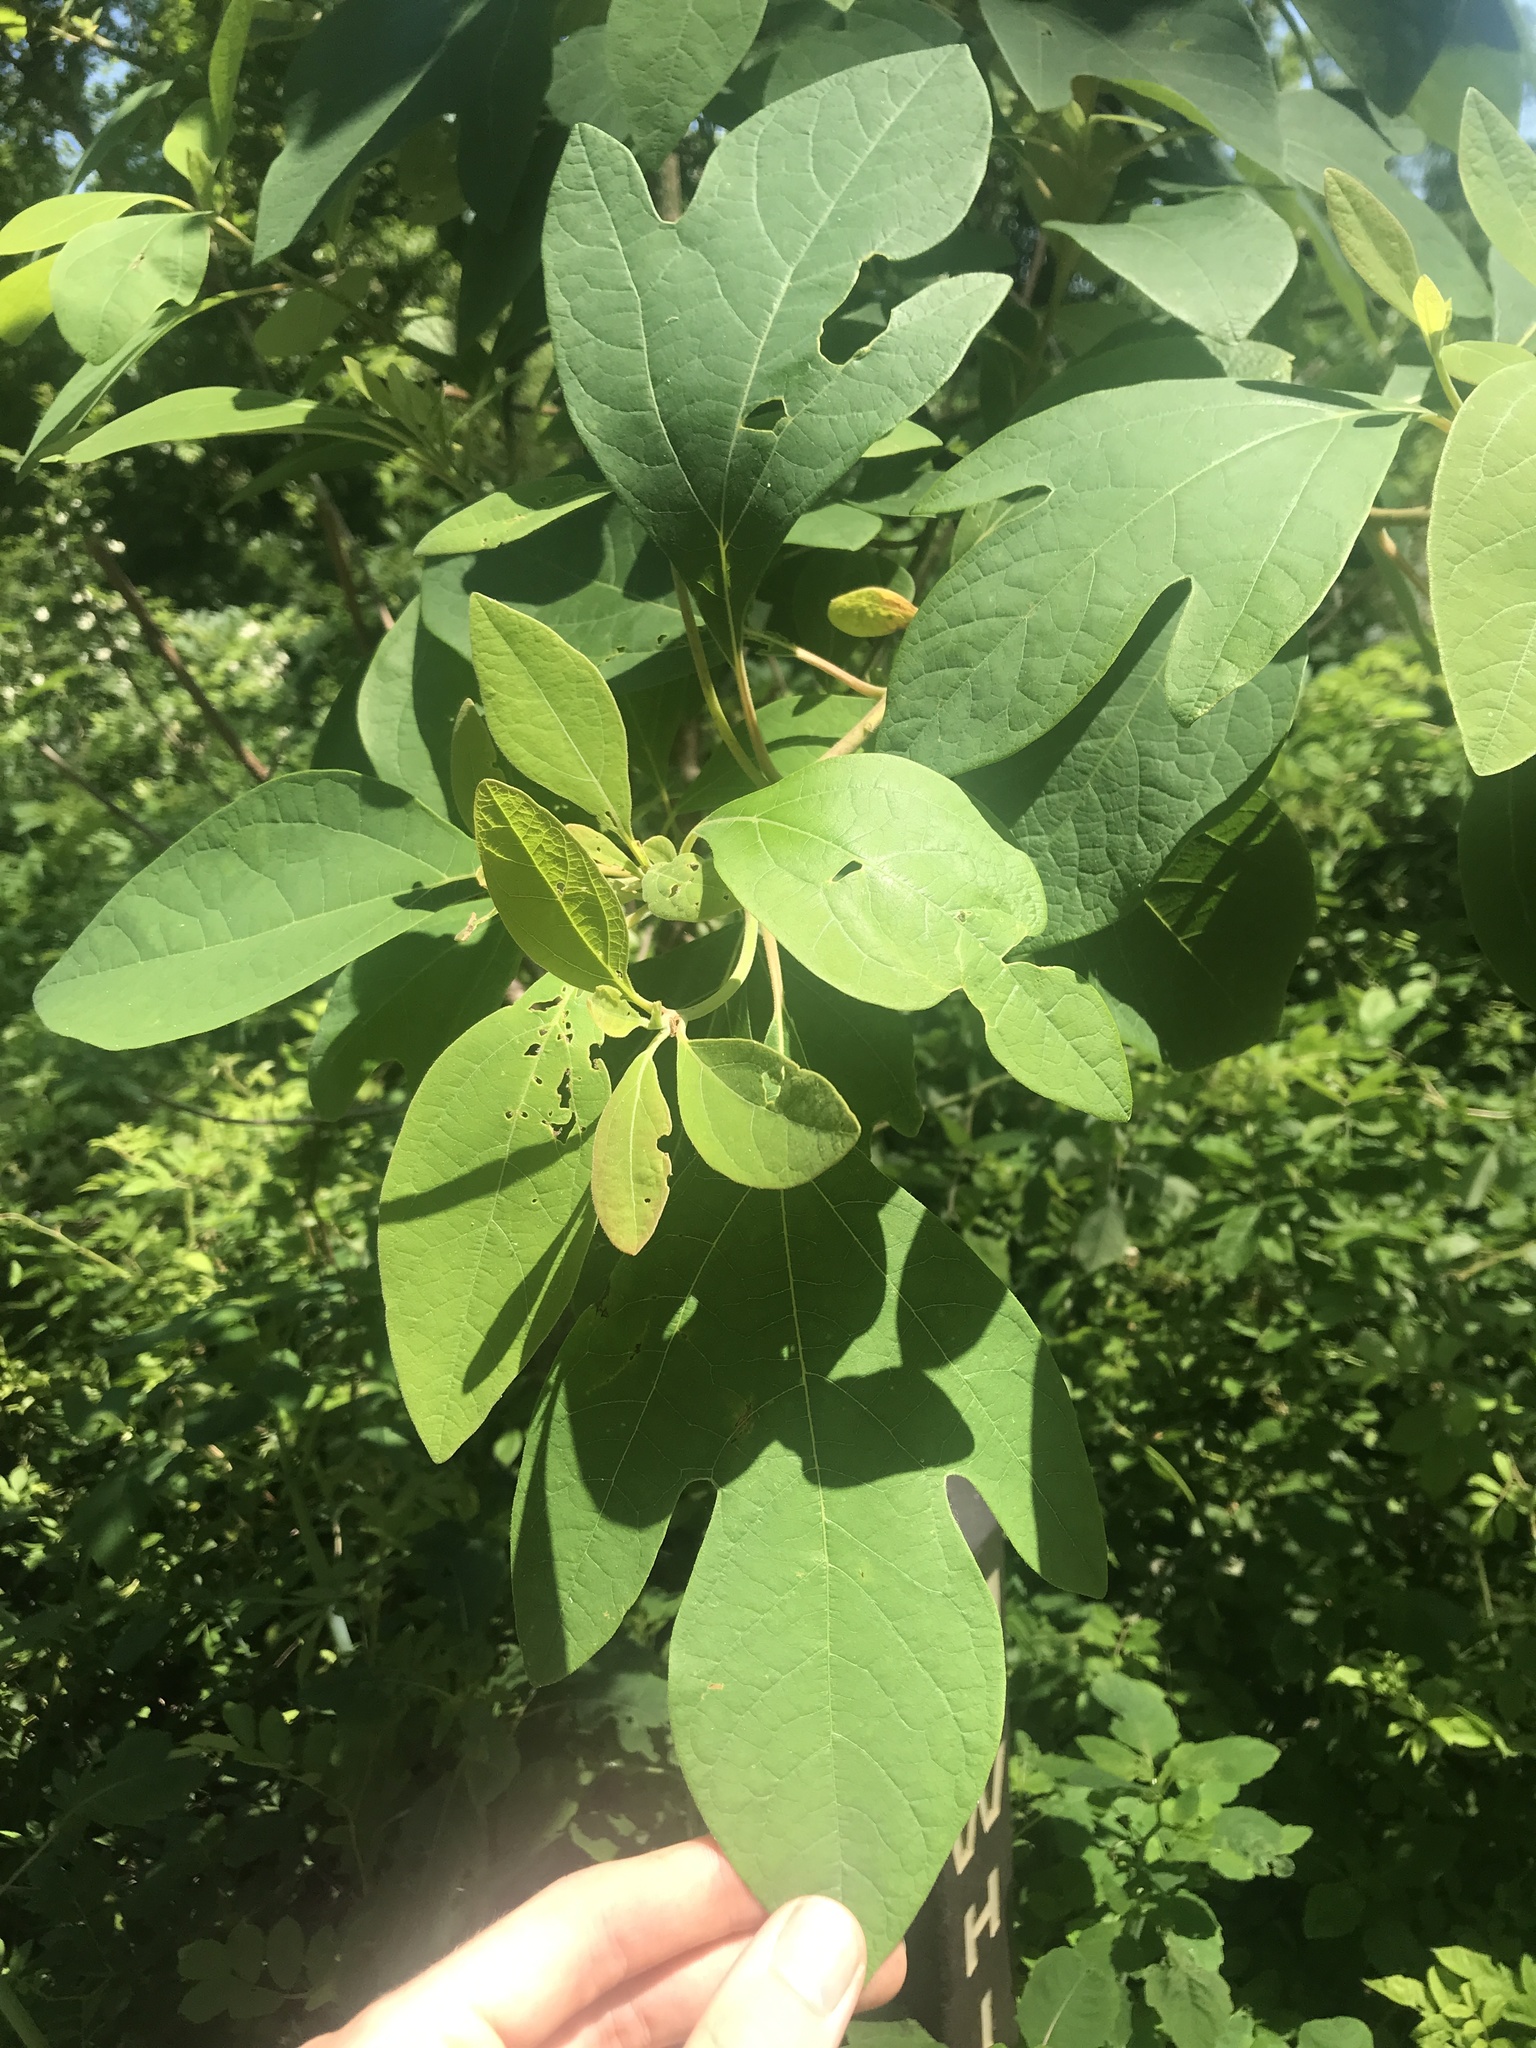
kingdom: Plantae
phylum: Tracheophyta
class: Magnoliopsida
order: Laurales
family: Lauraceae
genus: Sassafras
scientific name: Sassafras albidum
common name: Sassafras
